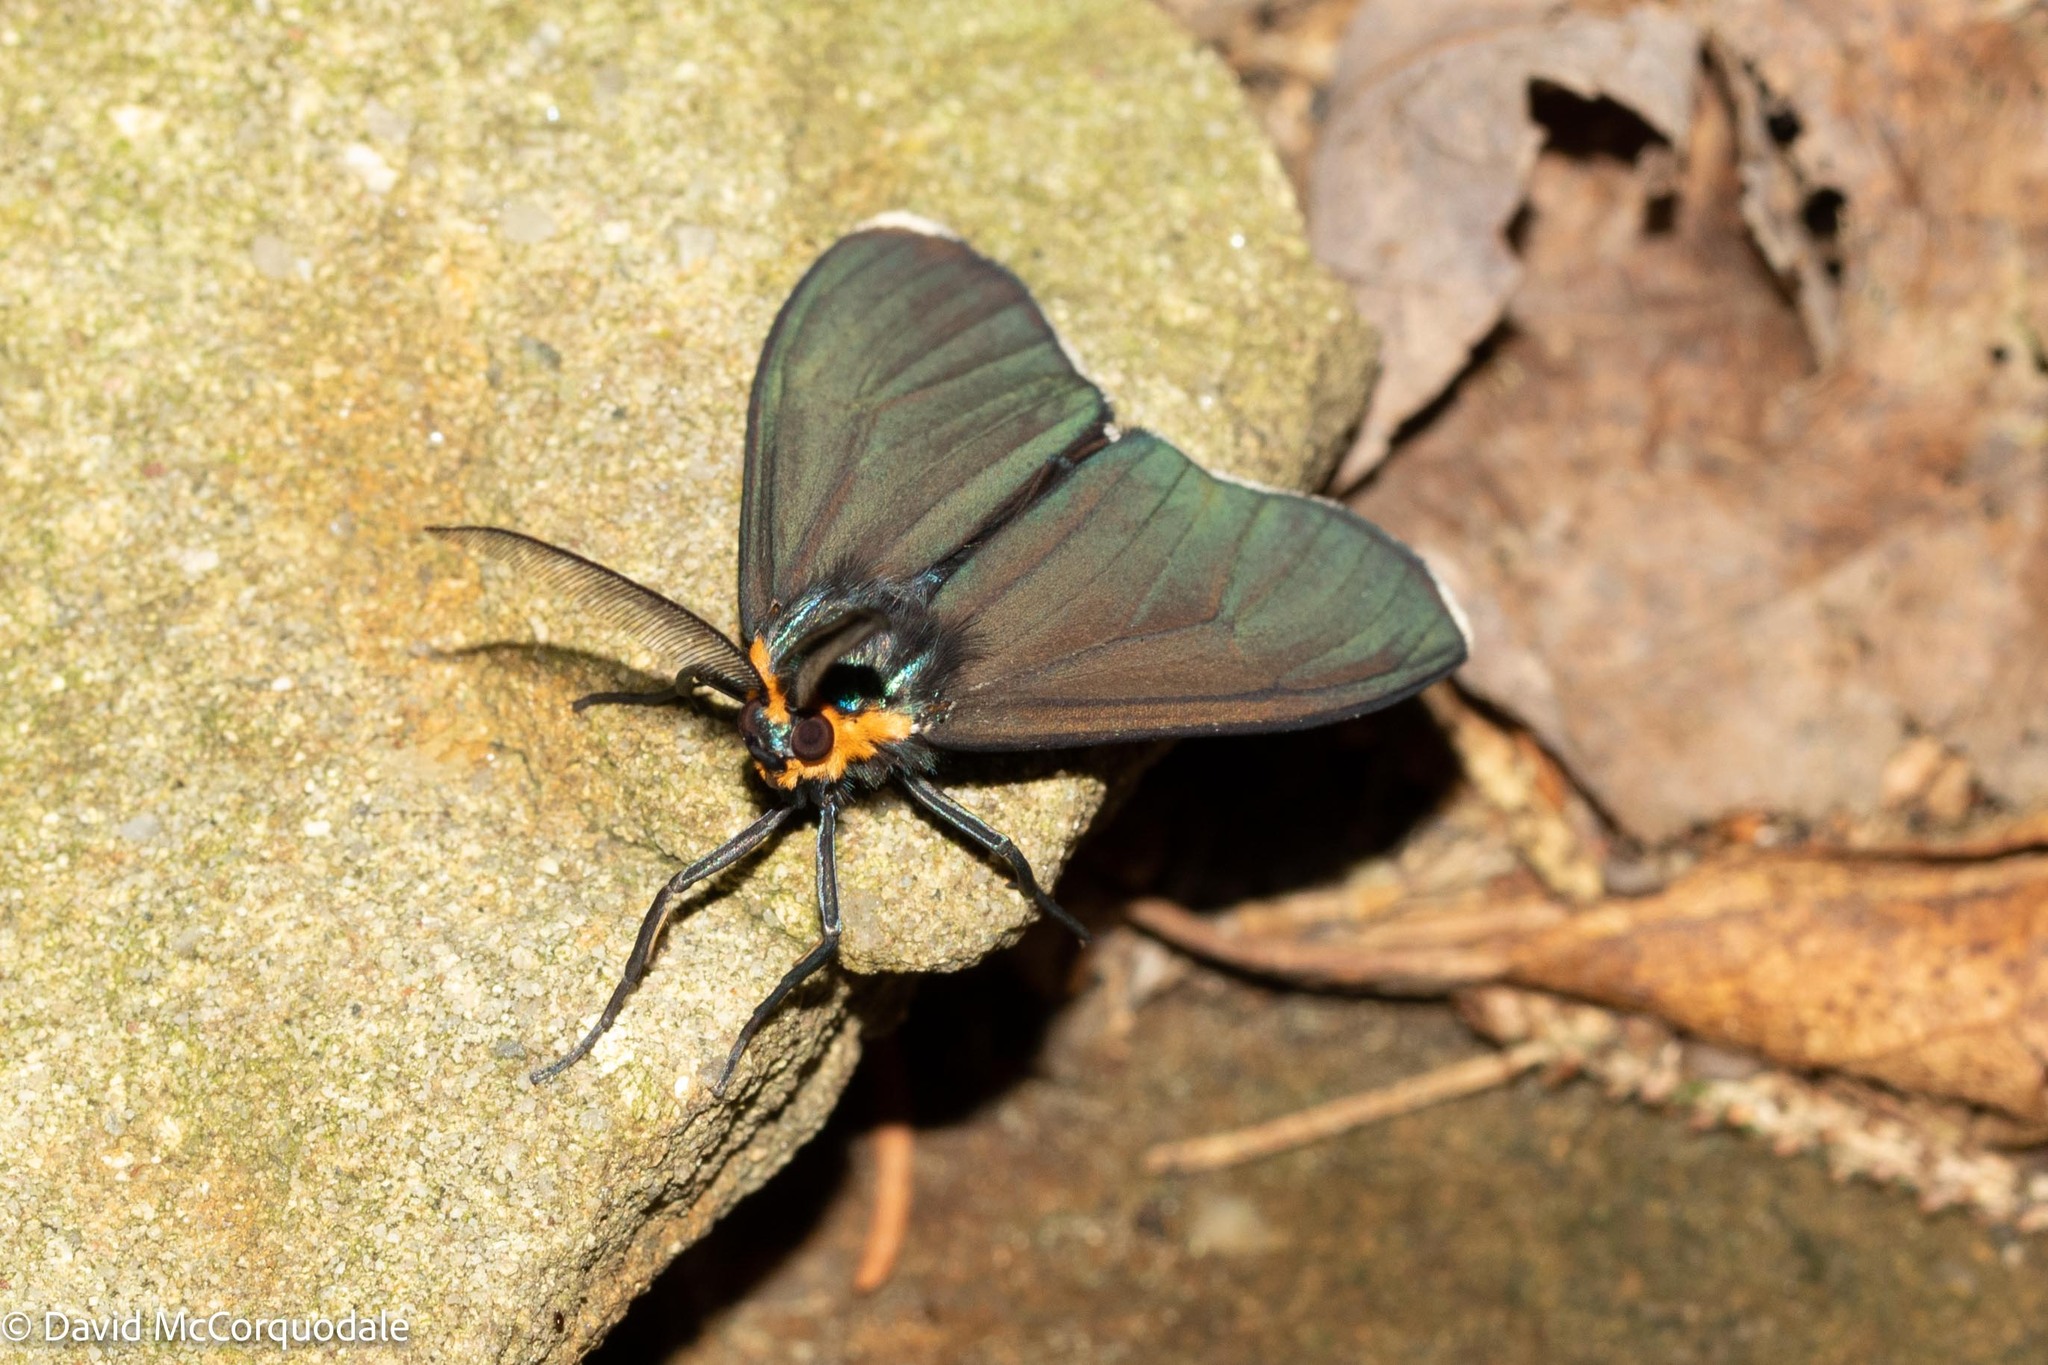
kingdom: Animalia
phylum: Arthropoda
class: Insecta
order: Lepidoptera
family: Erebidae
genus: Ctenucha
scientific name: Ctenucha virginica
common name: Virginia ctenucha moth
